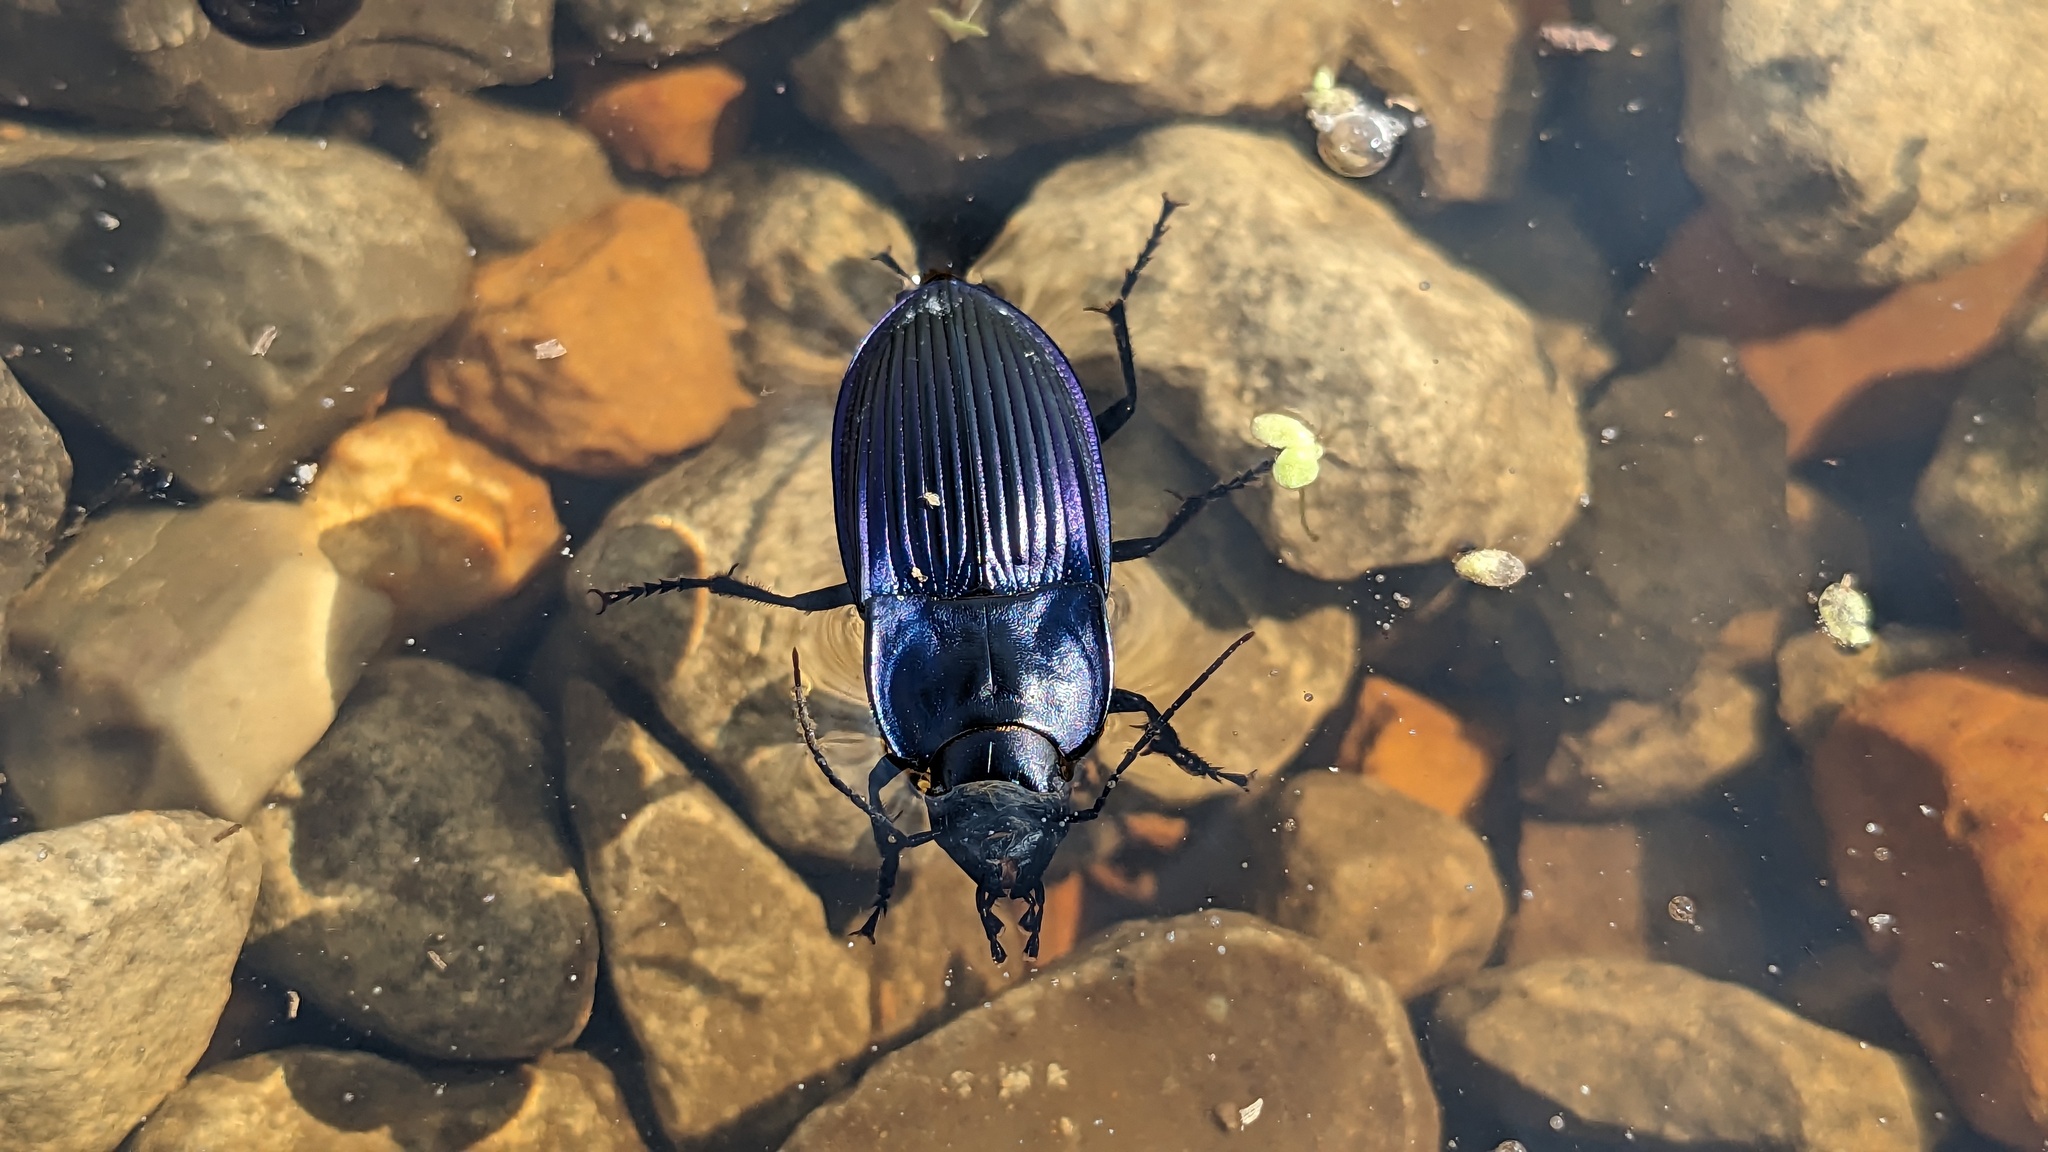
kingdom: Animalia
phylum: Arthropoda
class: Insecta
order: Coleoptera
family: Carabidae
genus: Dicaelus
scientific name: Dicaelus purpuratus
